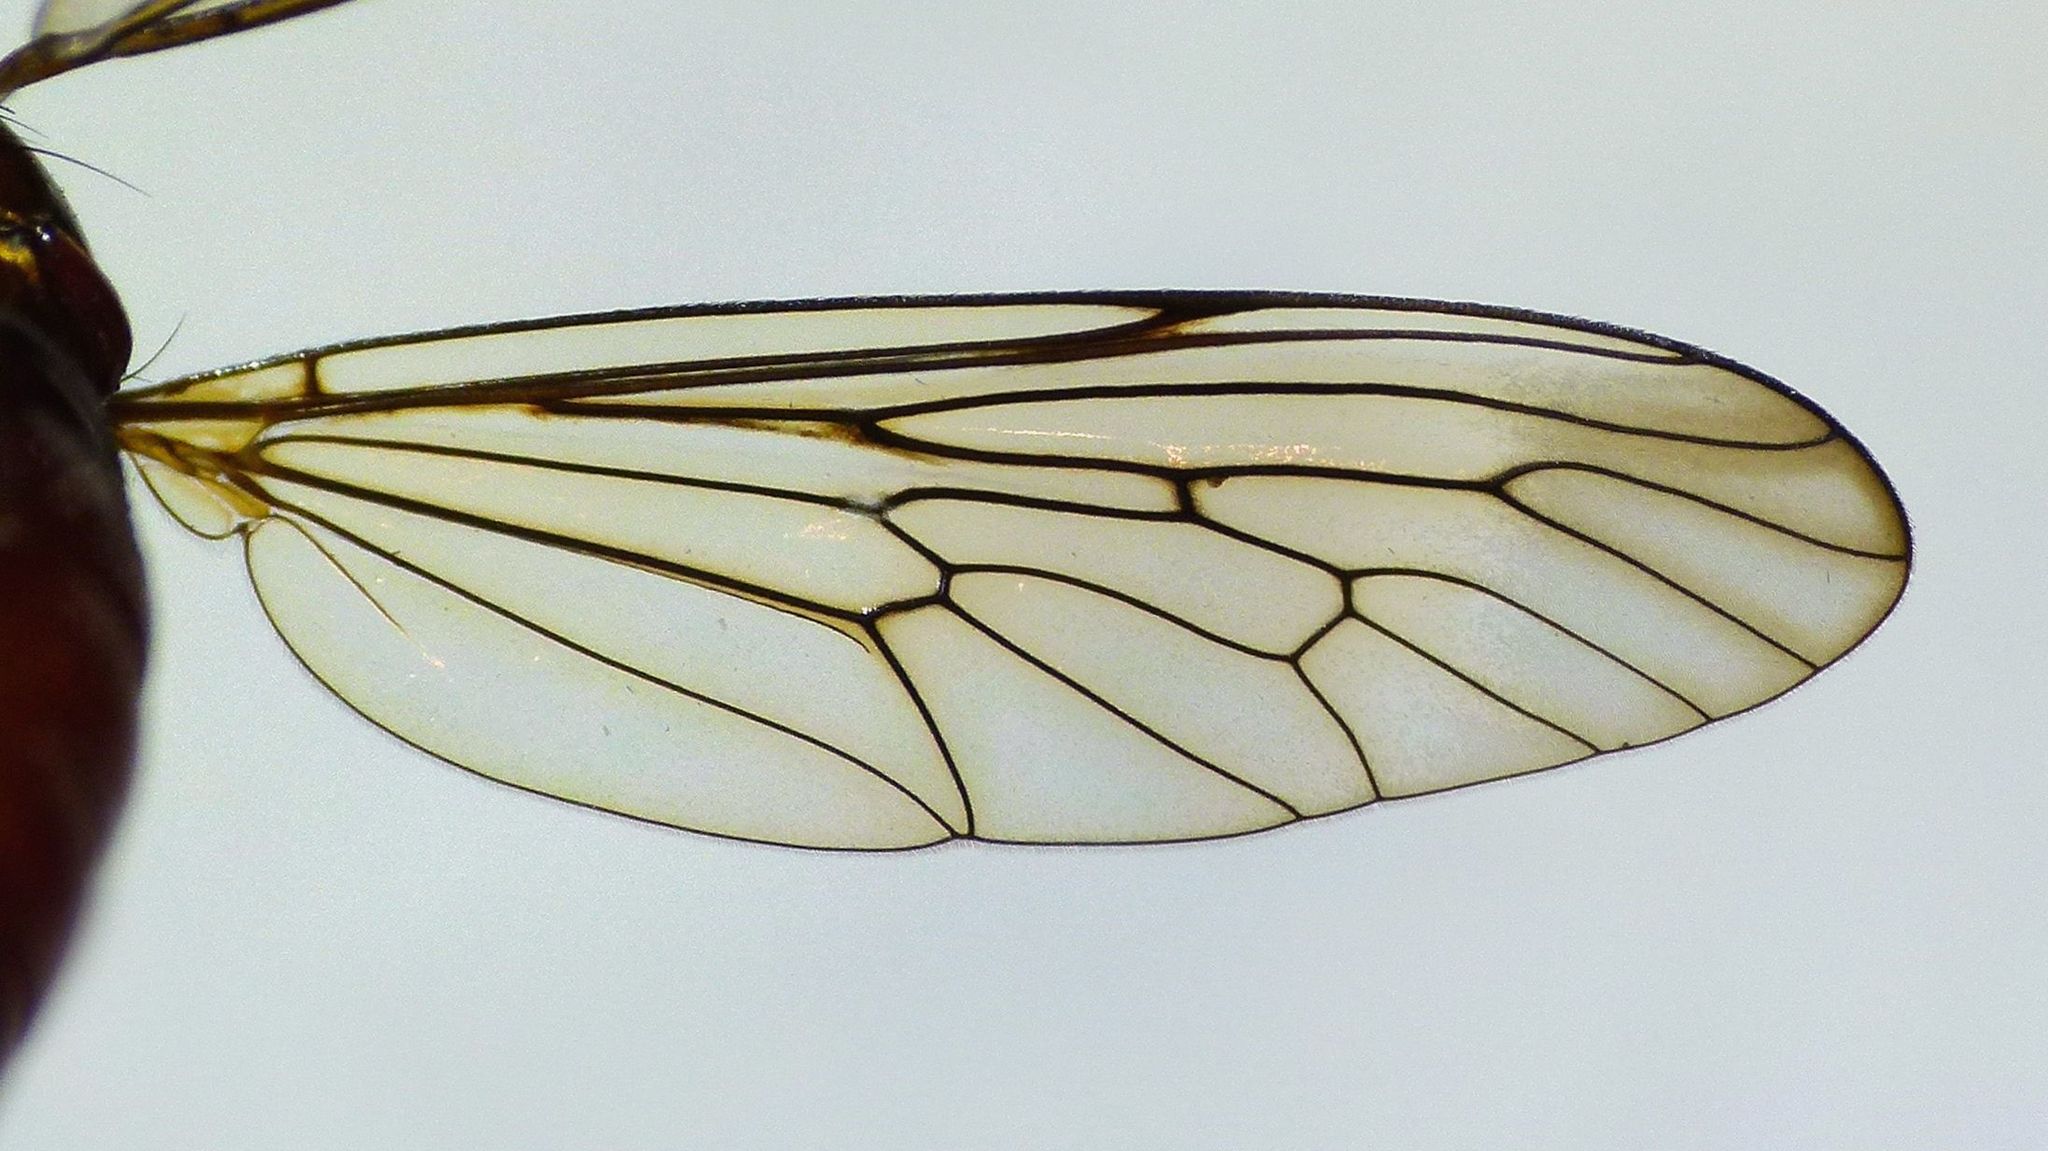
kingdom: Animalia
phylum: Arthropoda
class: Insecta
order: Diptera
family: Asilidae
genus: Saropogon
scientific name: Saropogon antipodus
